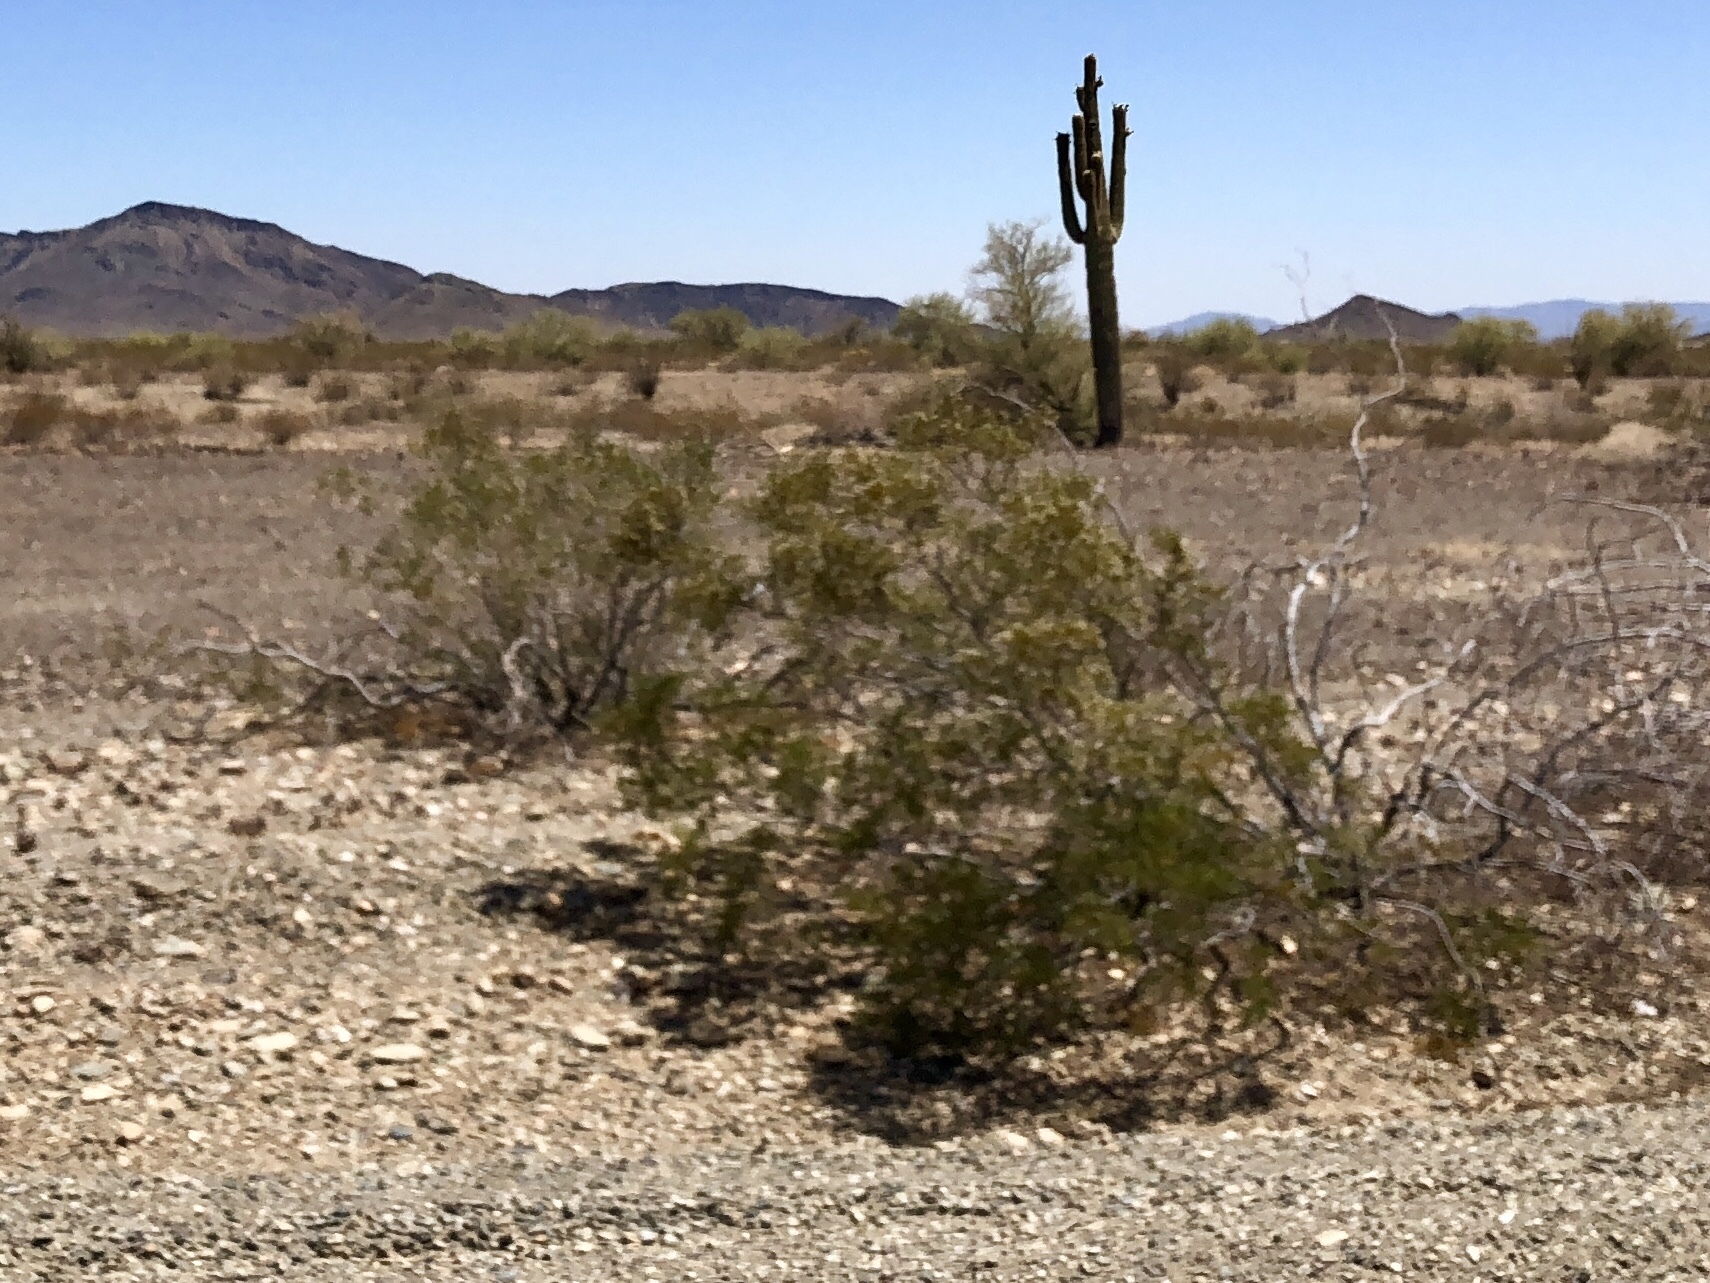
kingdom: Plantae
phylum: Tracheophyta
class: Magnoliopsida
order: Zygophyllales
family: Zygophyllaceae
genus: Larrea
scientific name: Larrea tridentata
